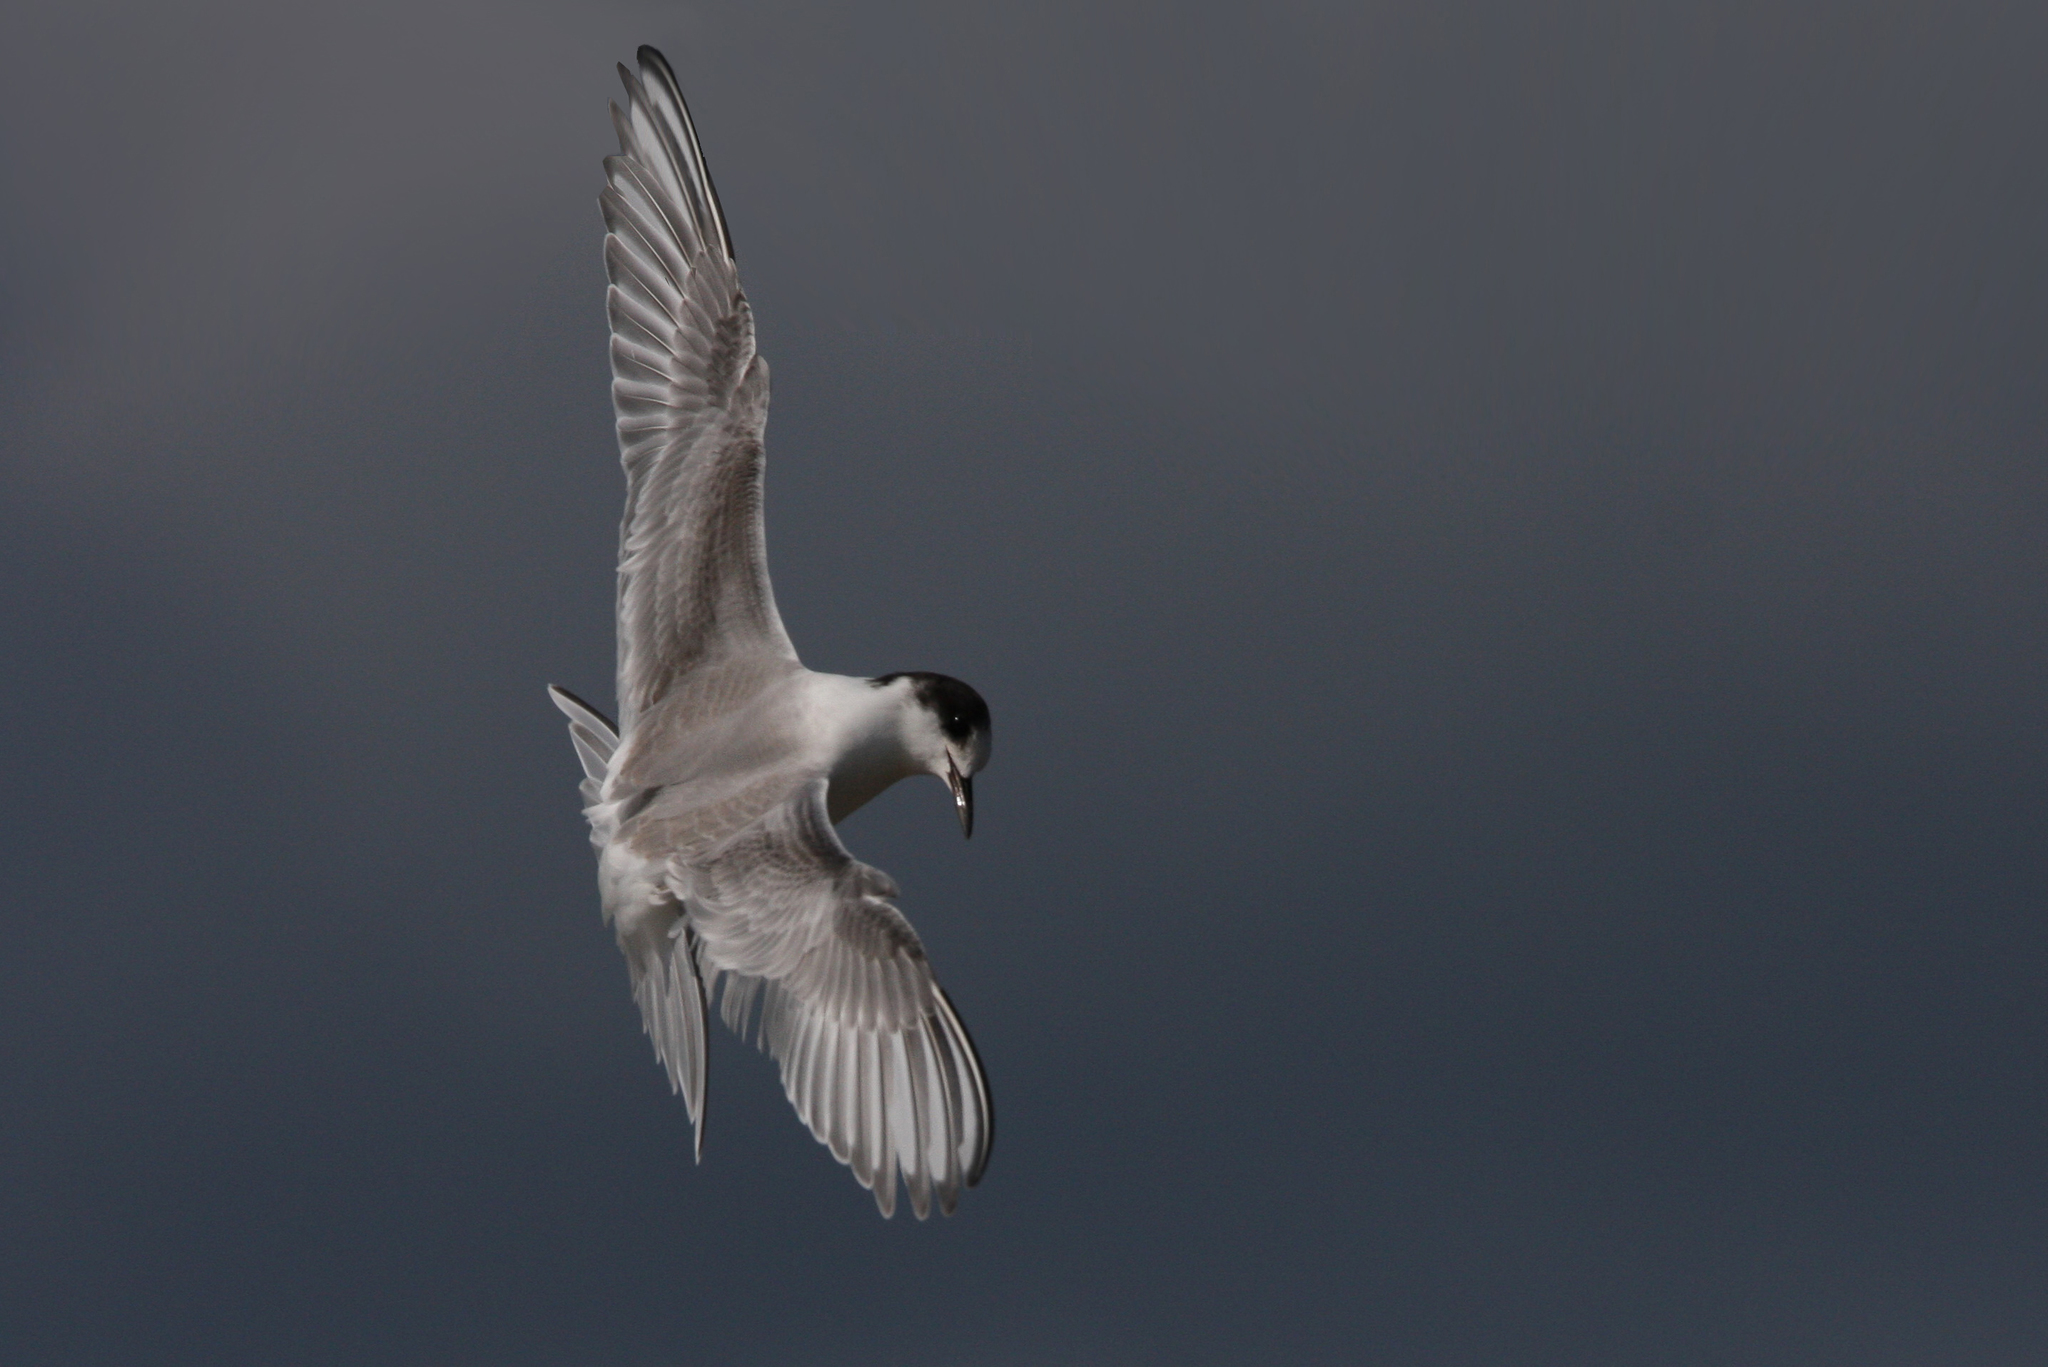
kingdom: Animalia
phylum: Chordata
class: Aves
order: Charadriiformes
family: Laridae
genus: Sterna
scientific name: Sterna paradisaea
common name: Arctic tern
